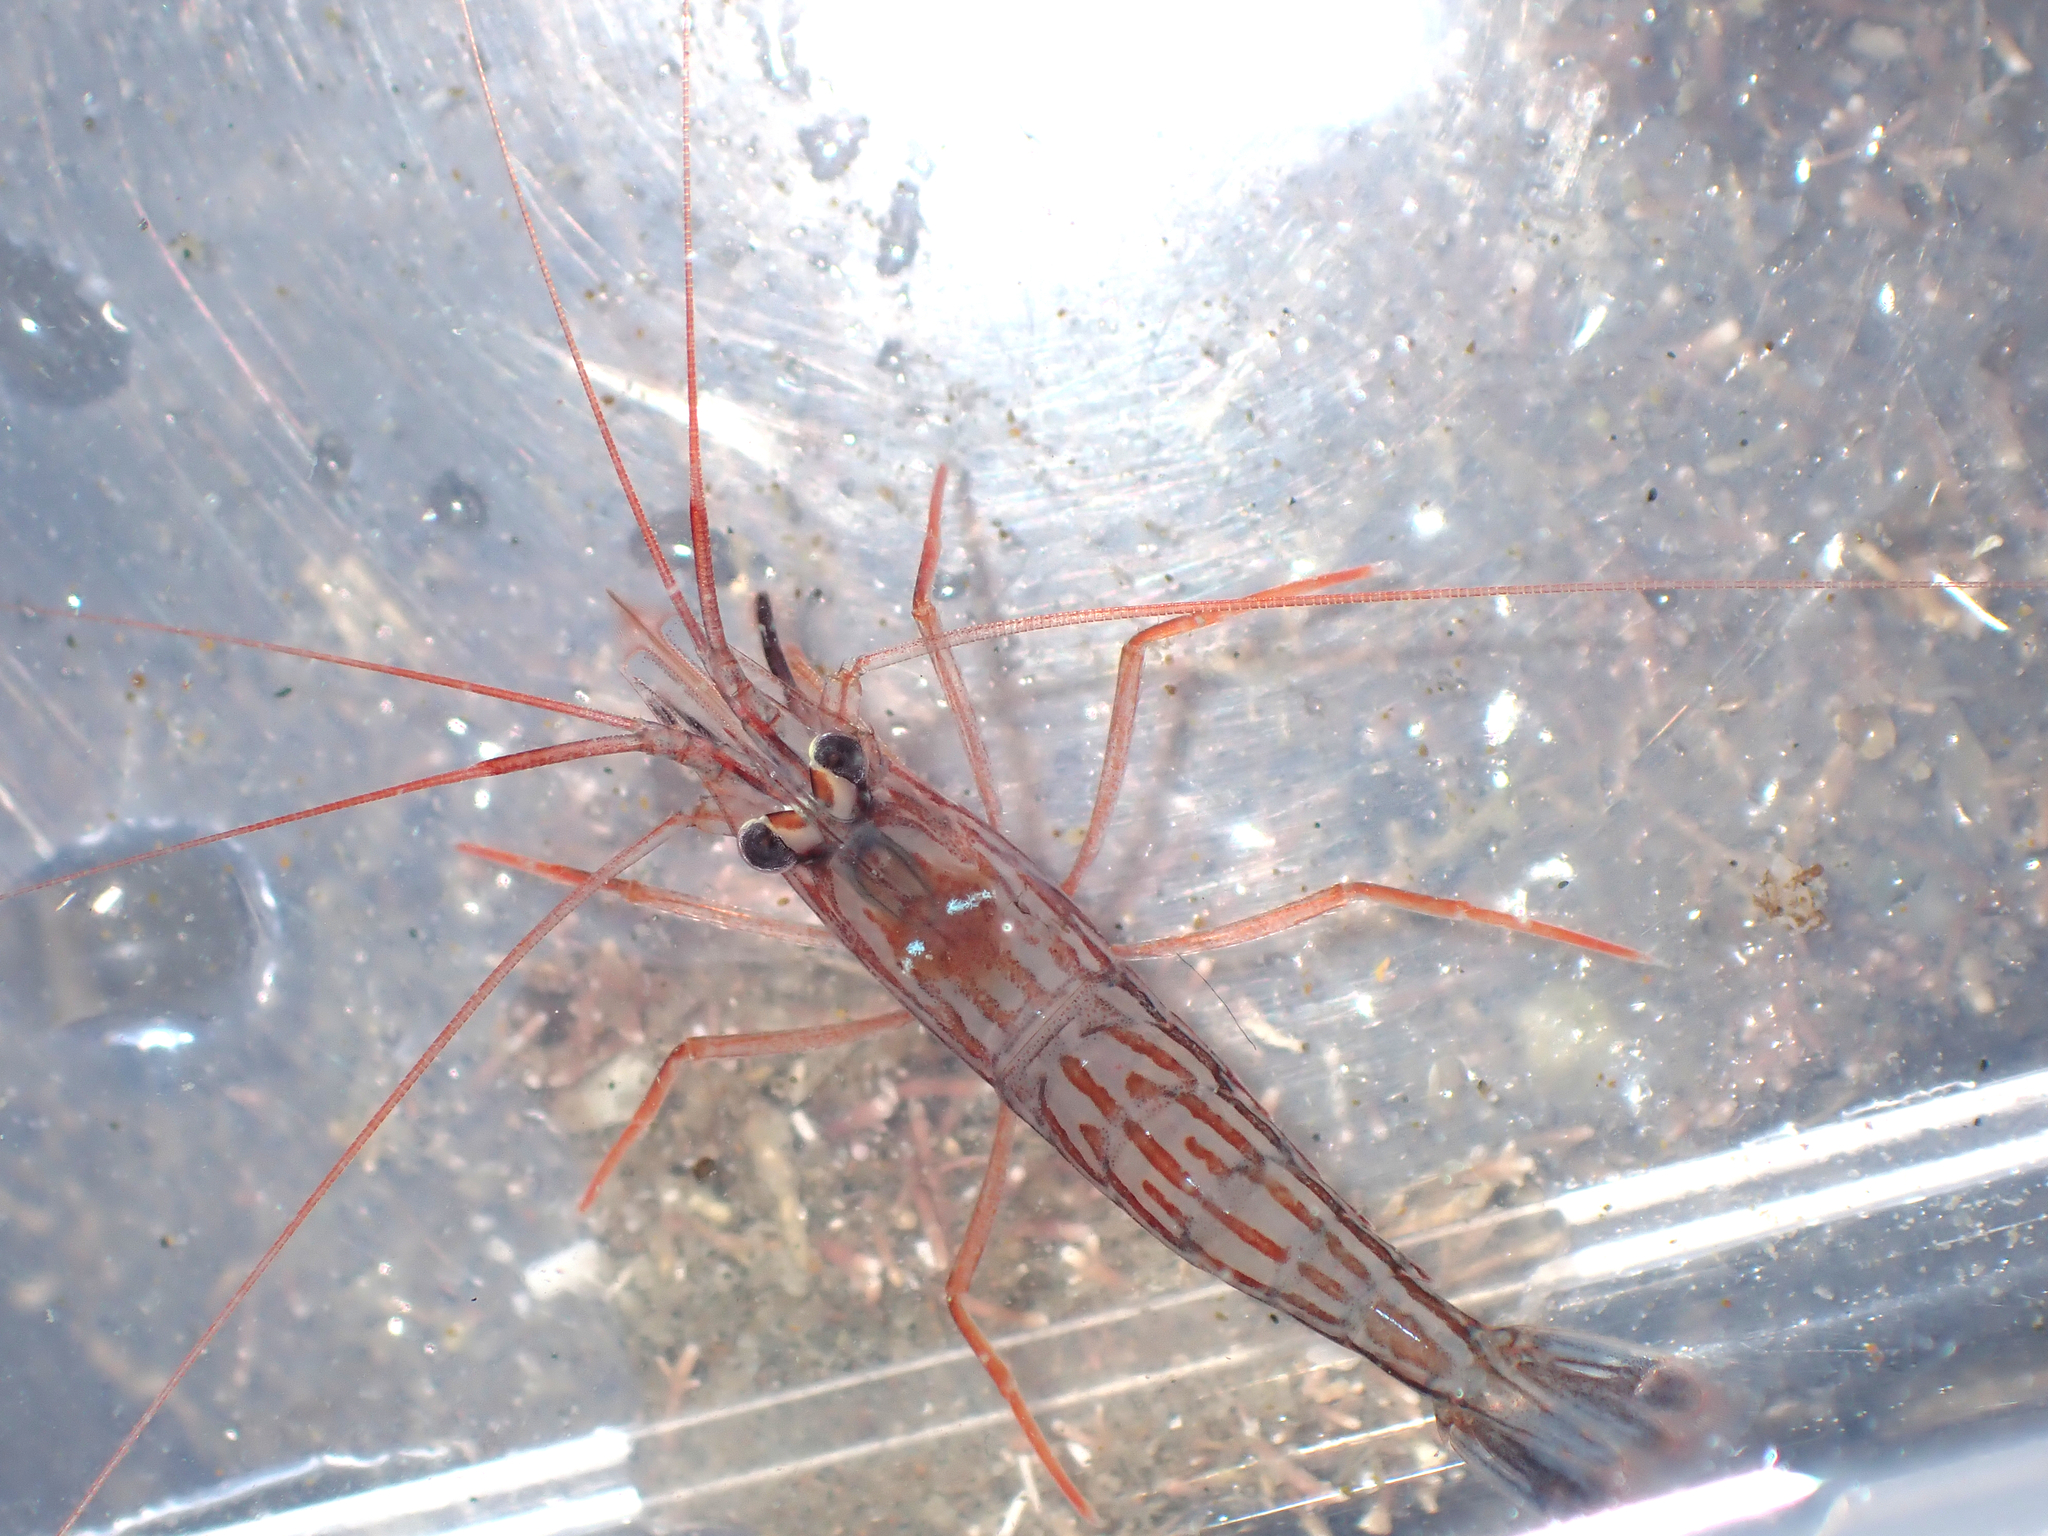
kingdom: Animalia
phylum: Arthropoda
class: Malacostraca
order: Decapoda
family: Lysmatidae
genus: Lysmata
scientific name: Lysmata californica
